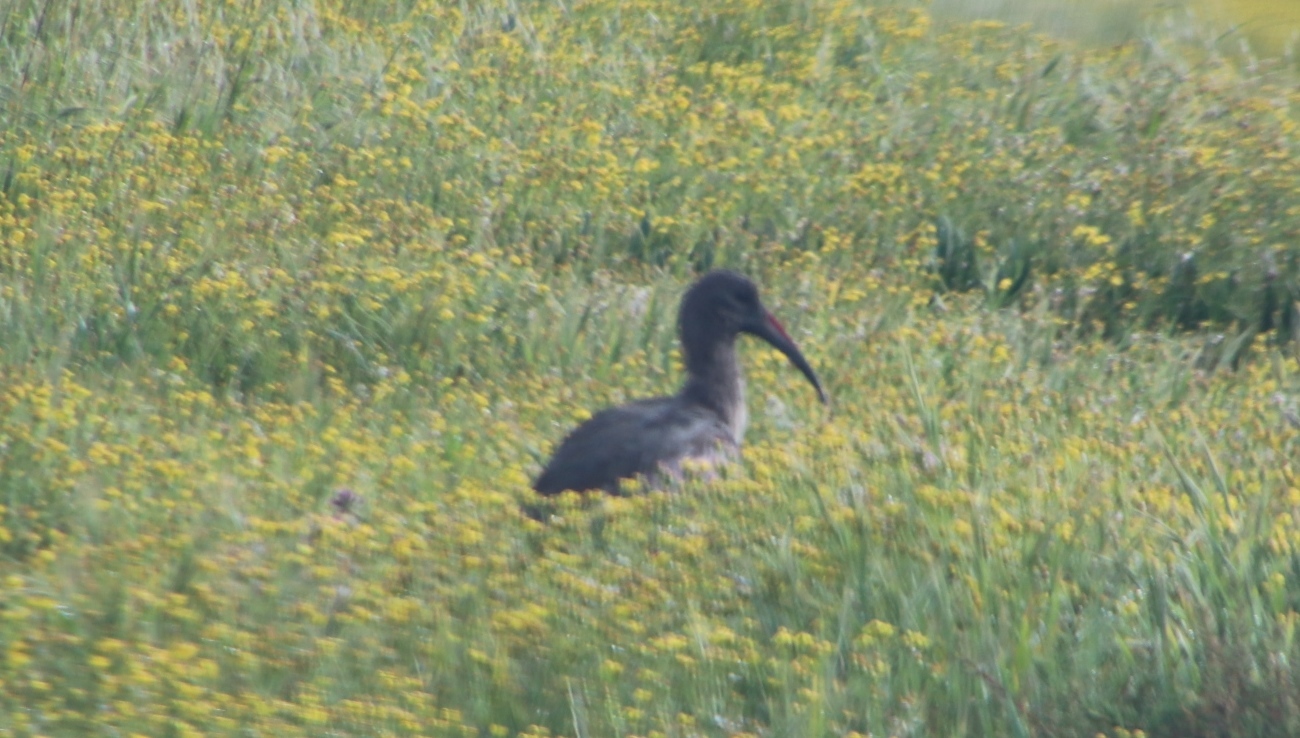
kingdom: Animalia
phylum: Chordata
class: Aves
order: Pelecaniformes
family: Threskiornithidae
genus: Bostrychia
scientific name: Bostrychia hagedash
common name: Hadada ibis
